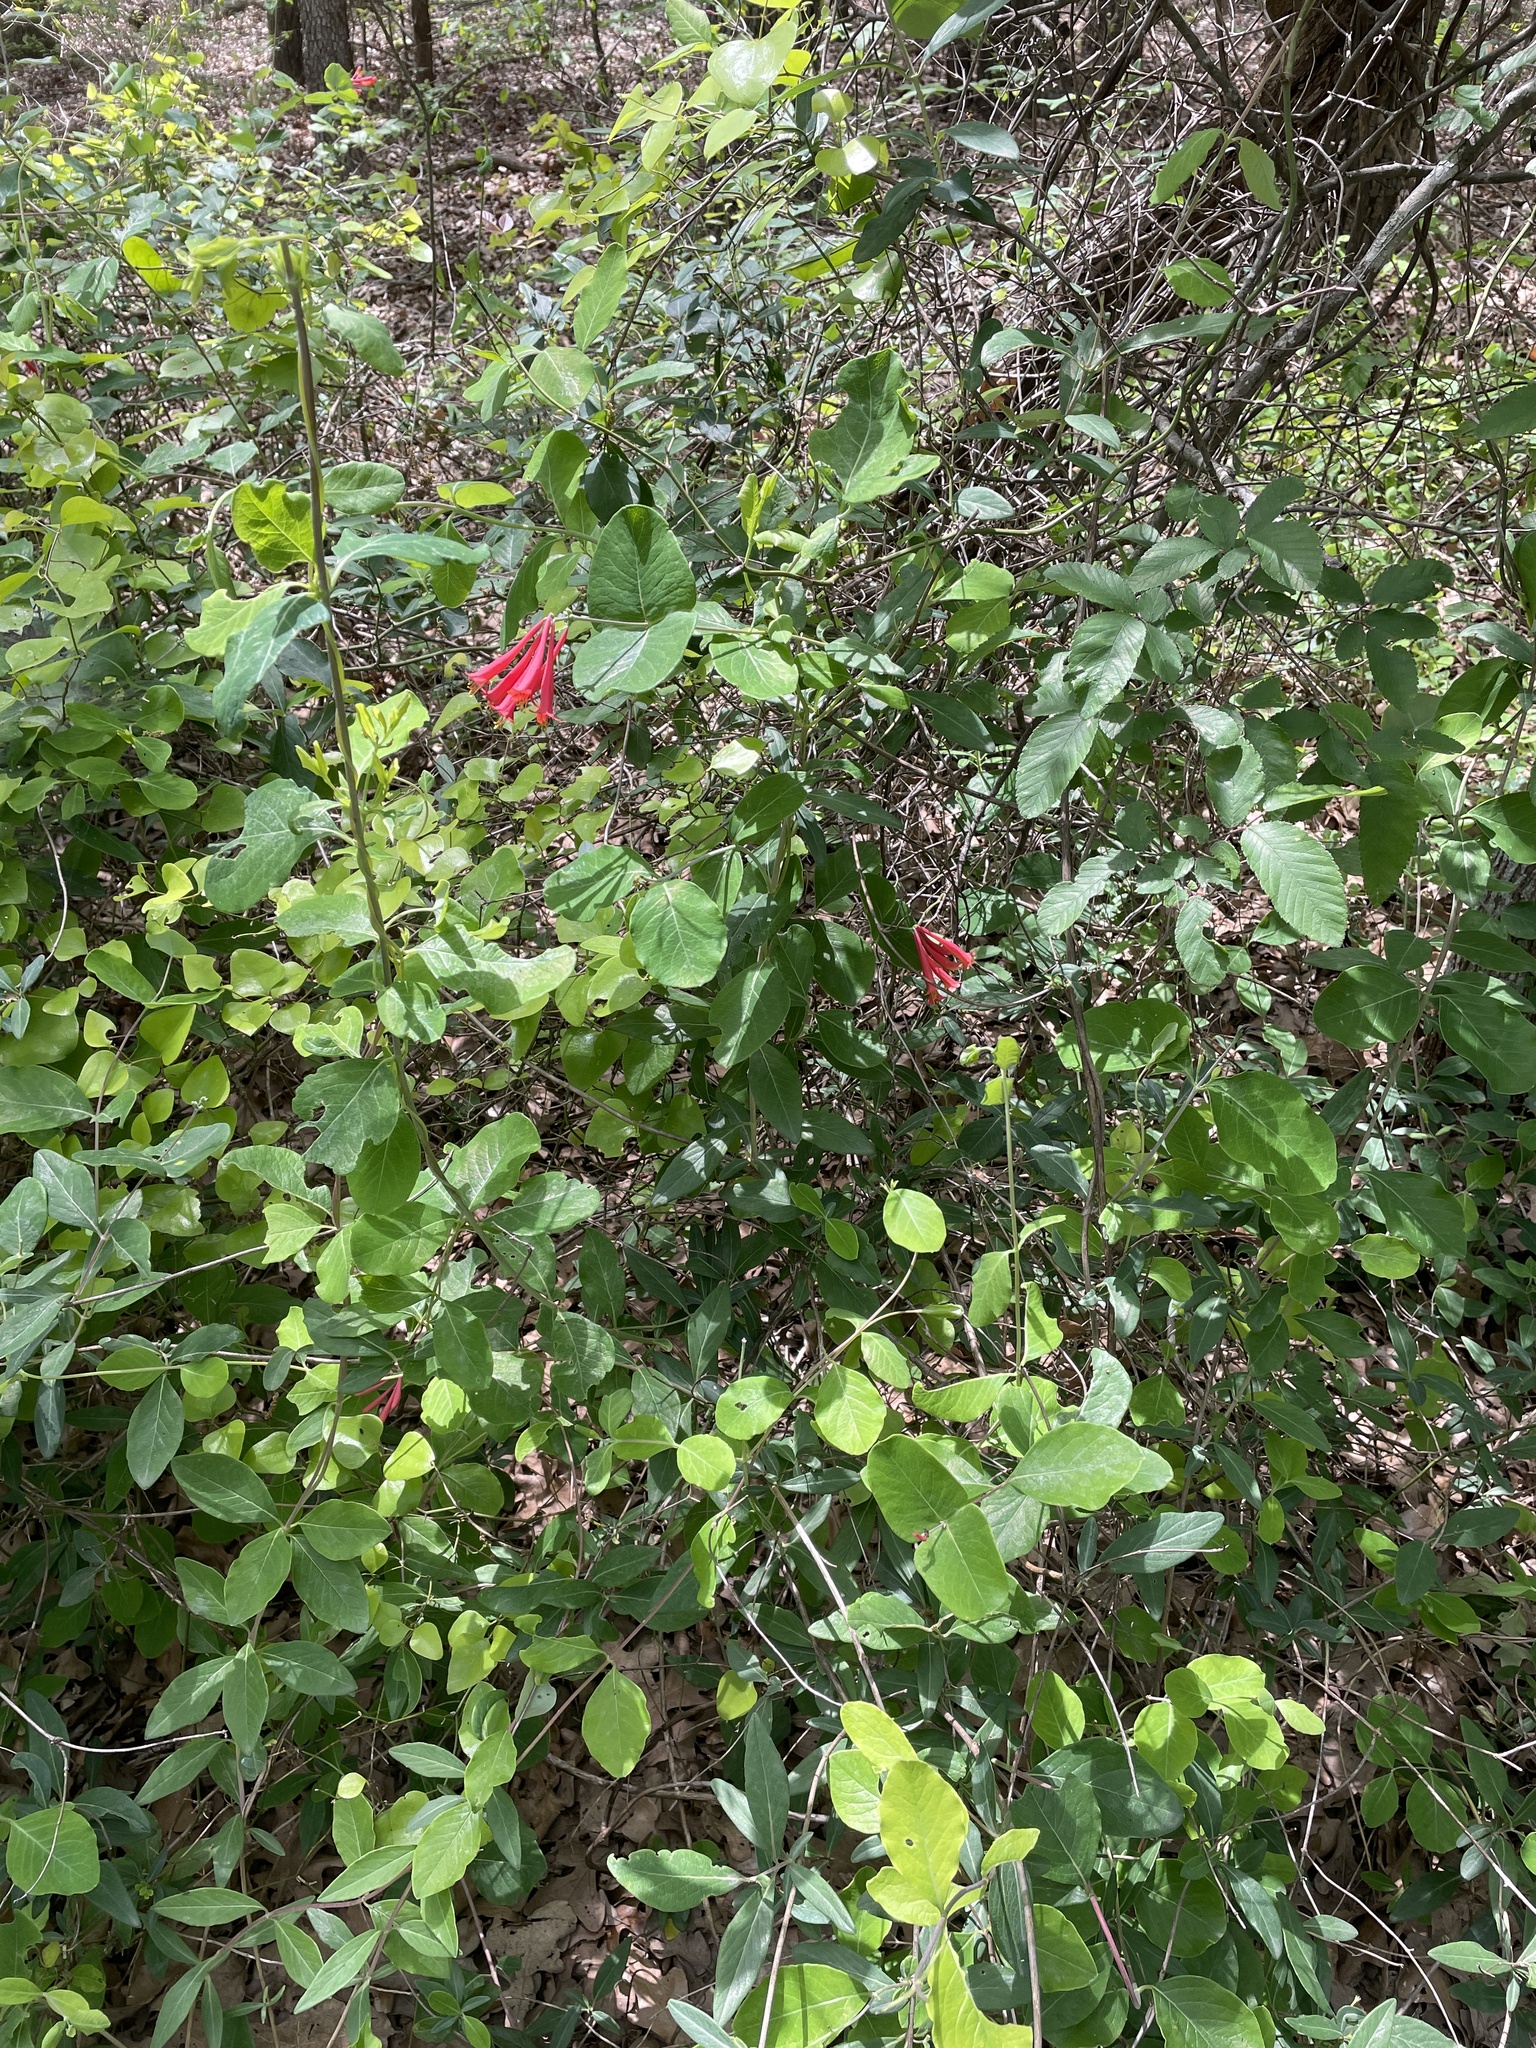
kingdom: Plantae
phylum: Tracheophyta
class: Magnoliopsida
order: Dipsacales
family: Caprifoliaceae
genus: Lonicera
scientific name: Lonicera sempervirens
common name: Coral honeysuckle
